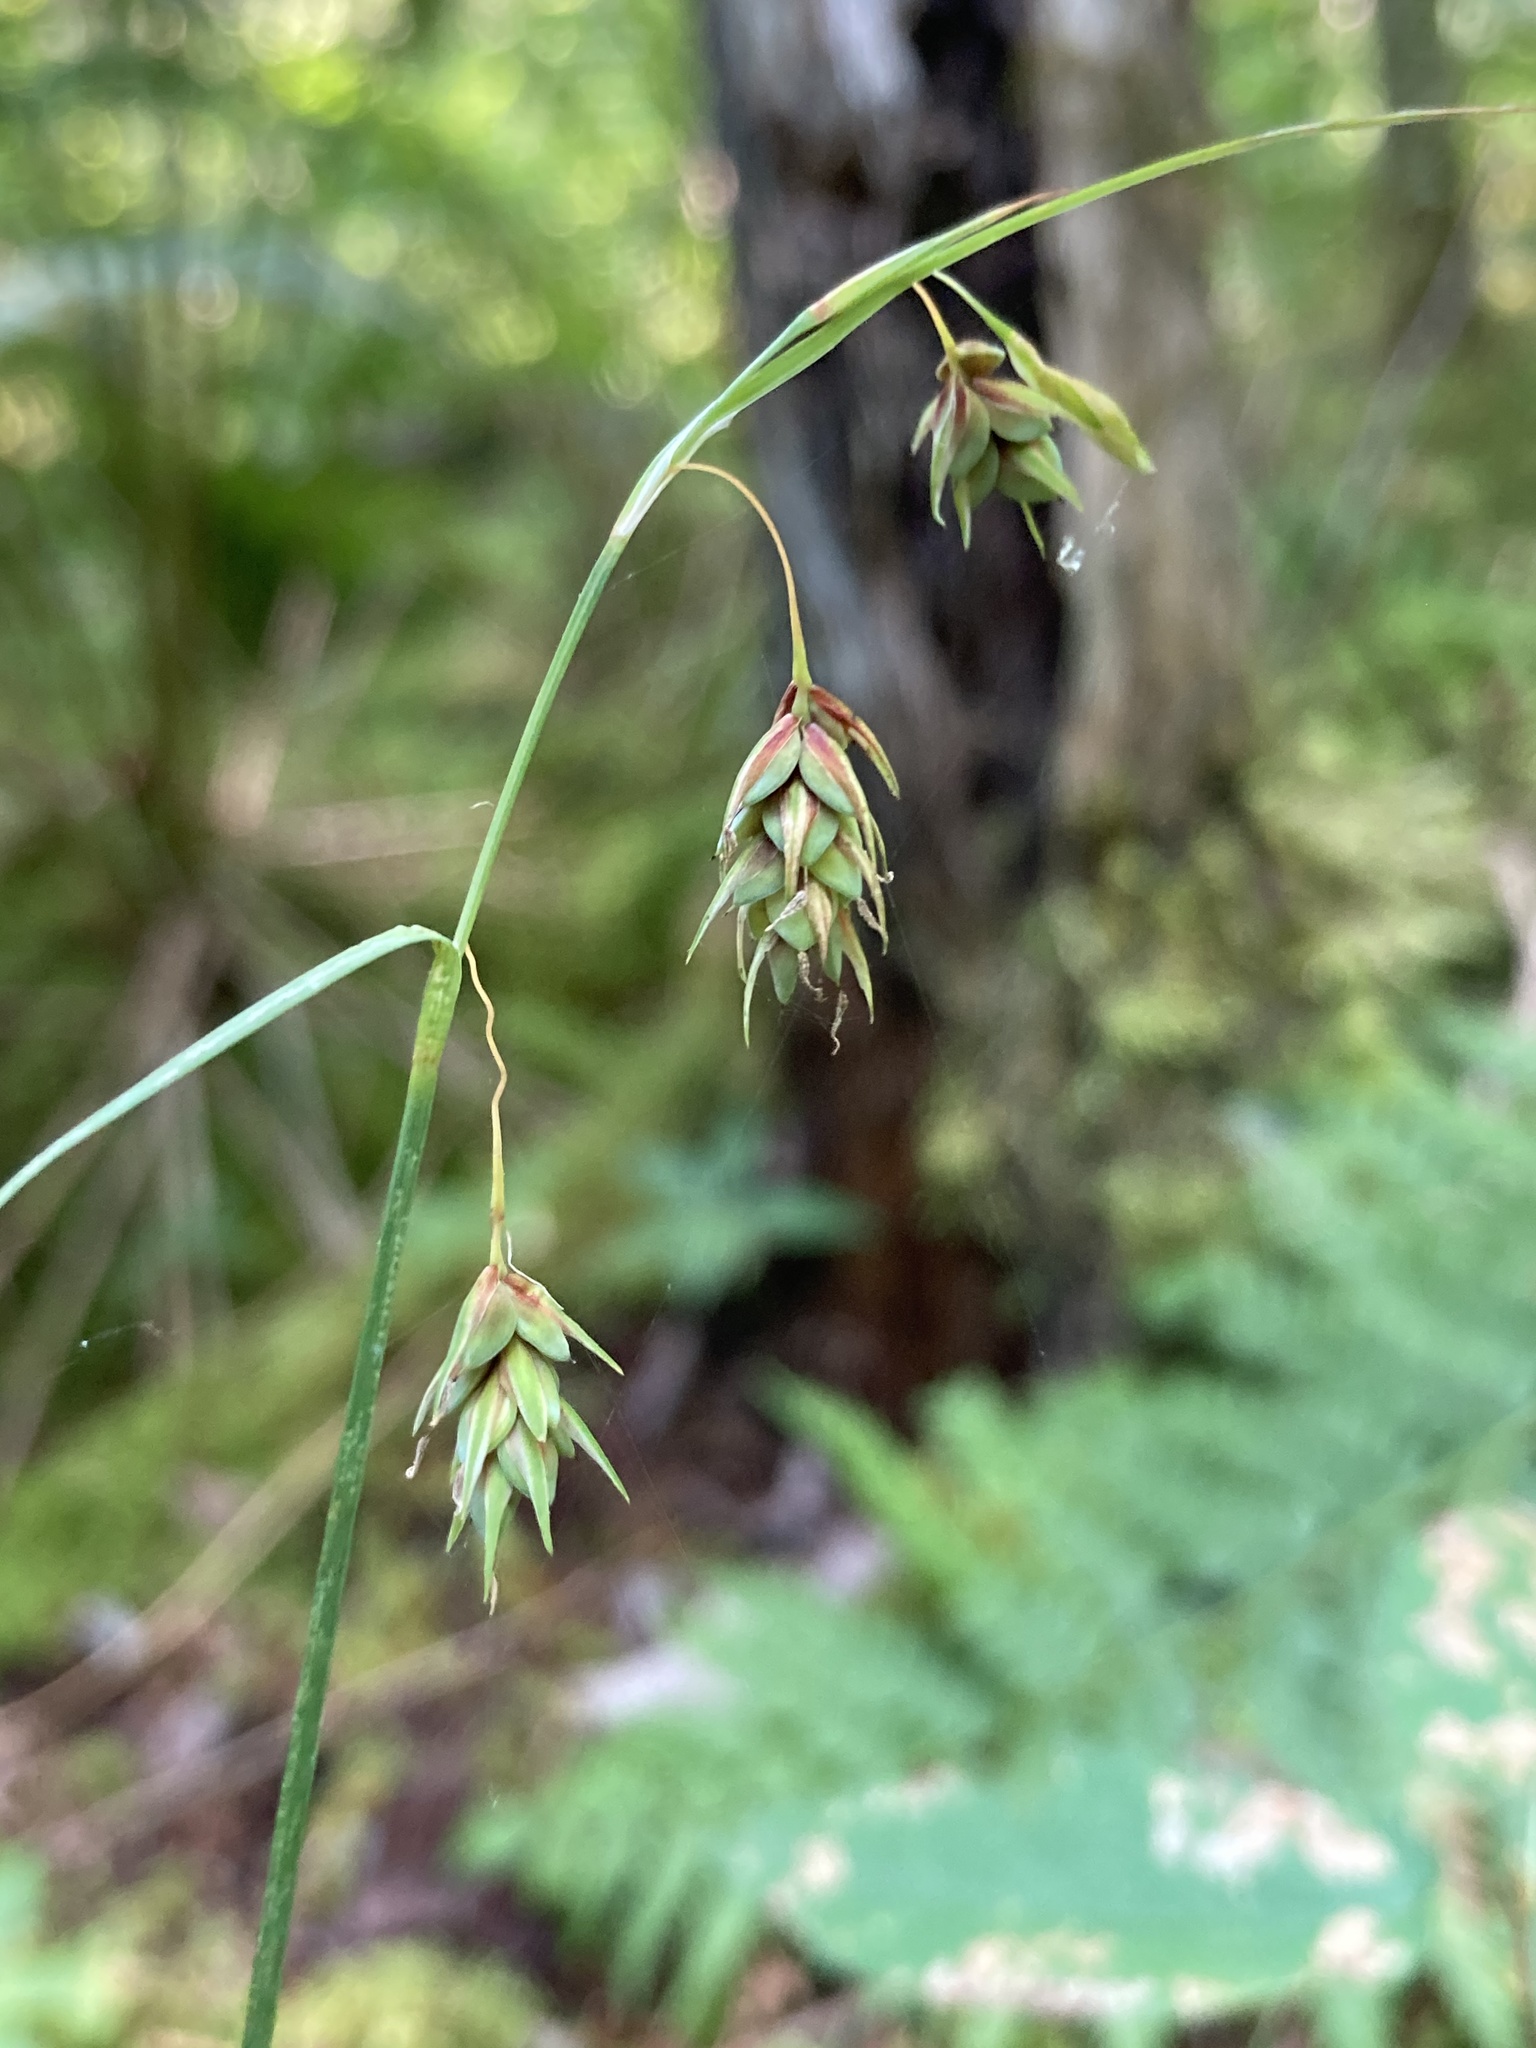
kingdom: Plantae
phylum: Tracheophyta
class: Liliopsida
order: Poales
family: Cyperaceae
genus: Carex
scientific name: Carex magellanica
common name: Bog sedge
